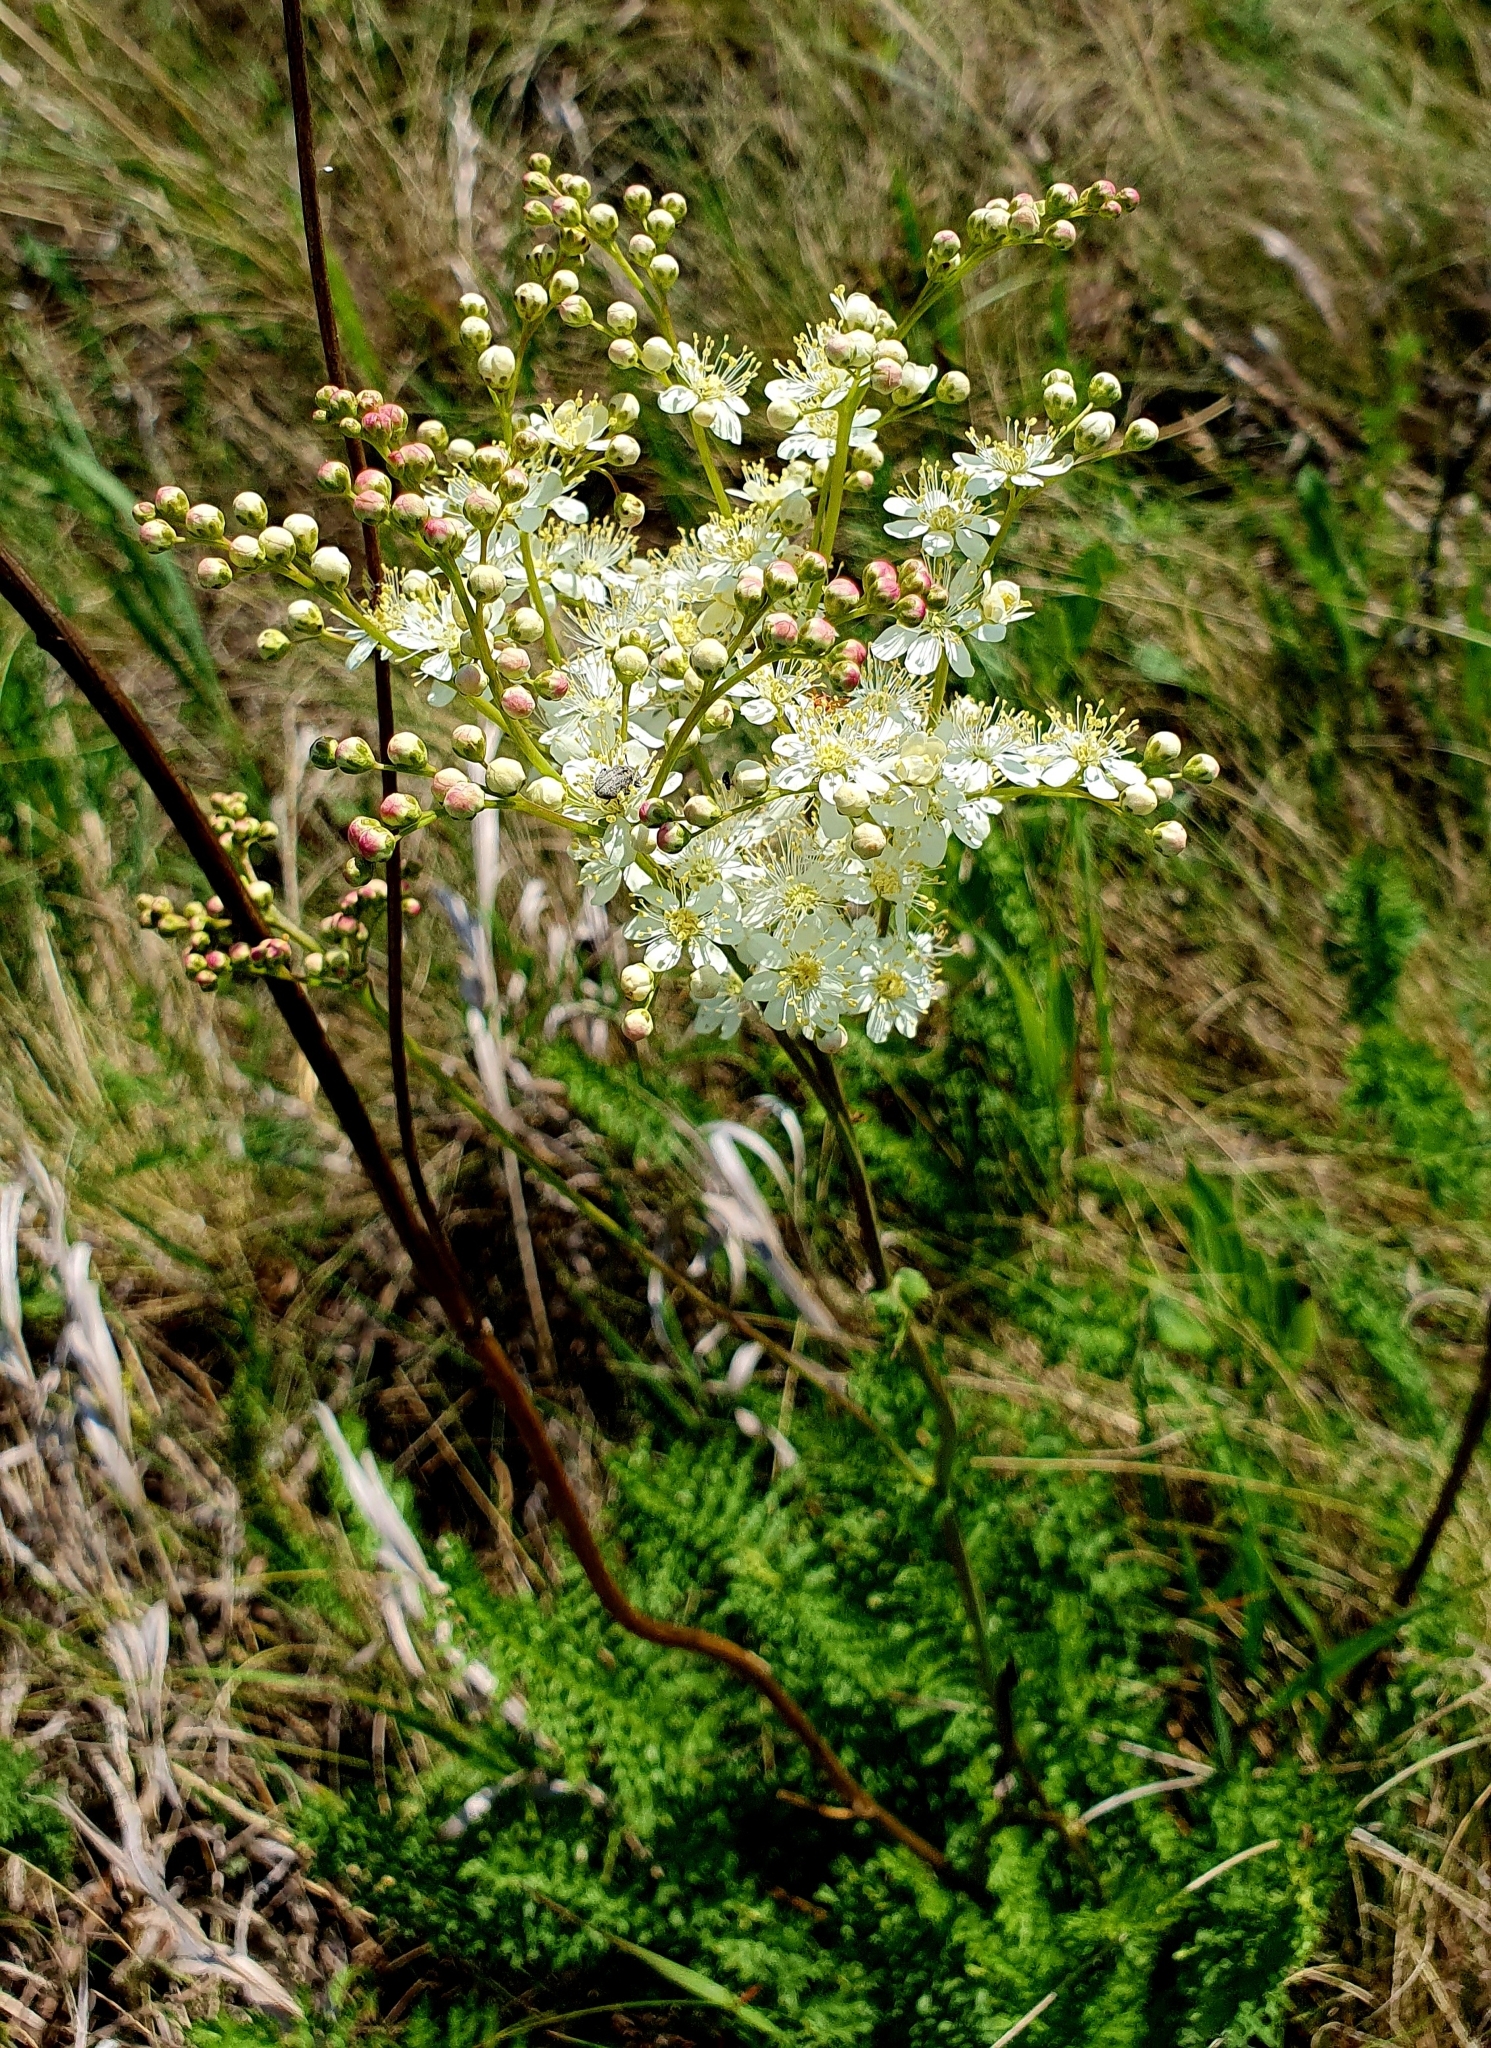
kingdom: Plantae
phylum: Tracheophyta
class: Magnoliopsida
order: Rosales
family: Rosaceae
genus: Filipendula
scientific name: Filipendula vulgaris
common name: Dropwort
